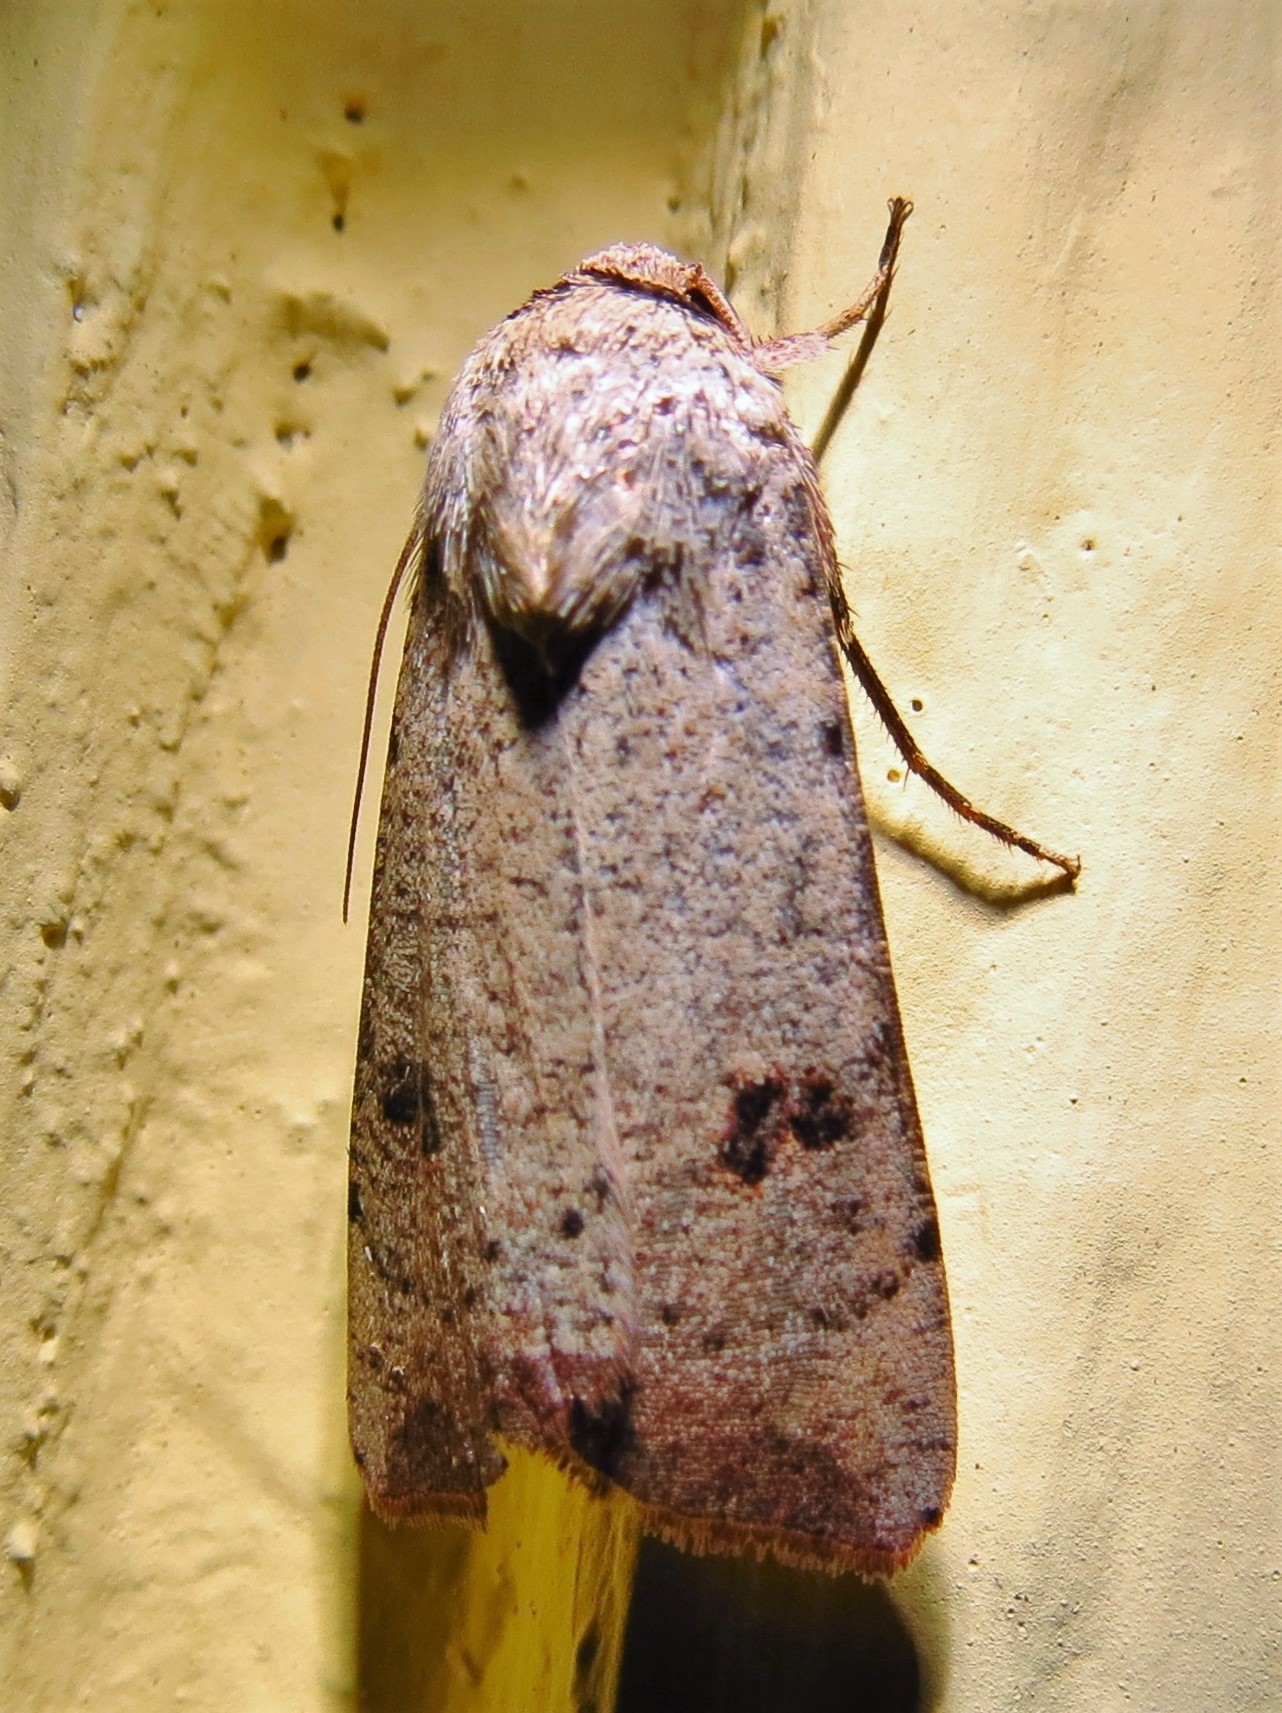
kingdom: Animalia
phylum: Arthropoda
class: Insecta
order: Lepidoptera
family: Noctuidae
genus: Anicla
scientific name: Anicla infecta
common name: Green cutworm
